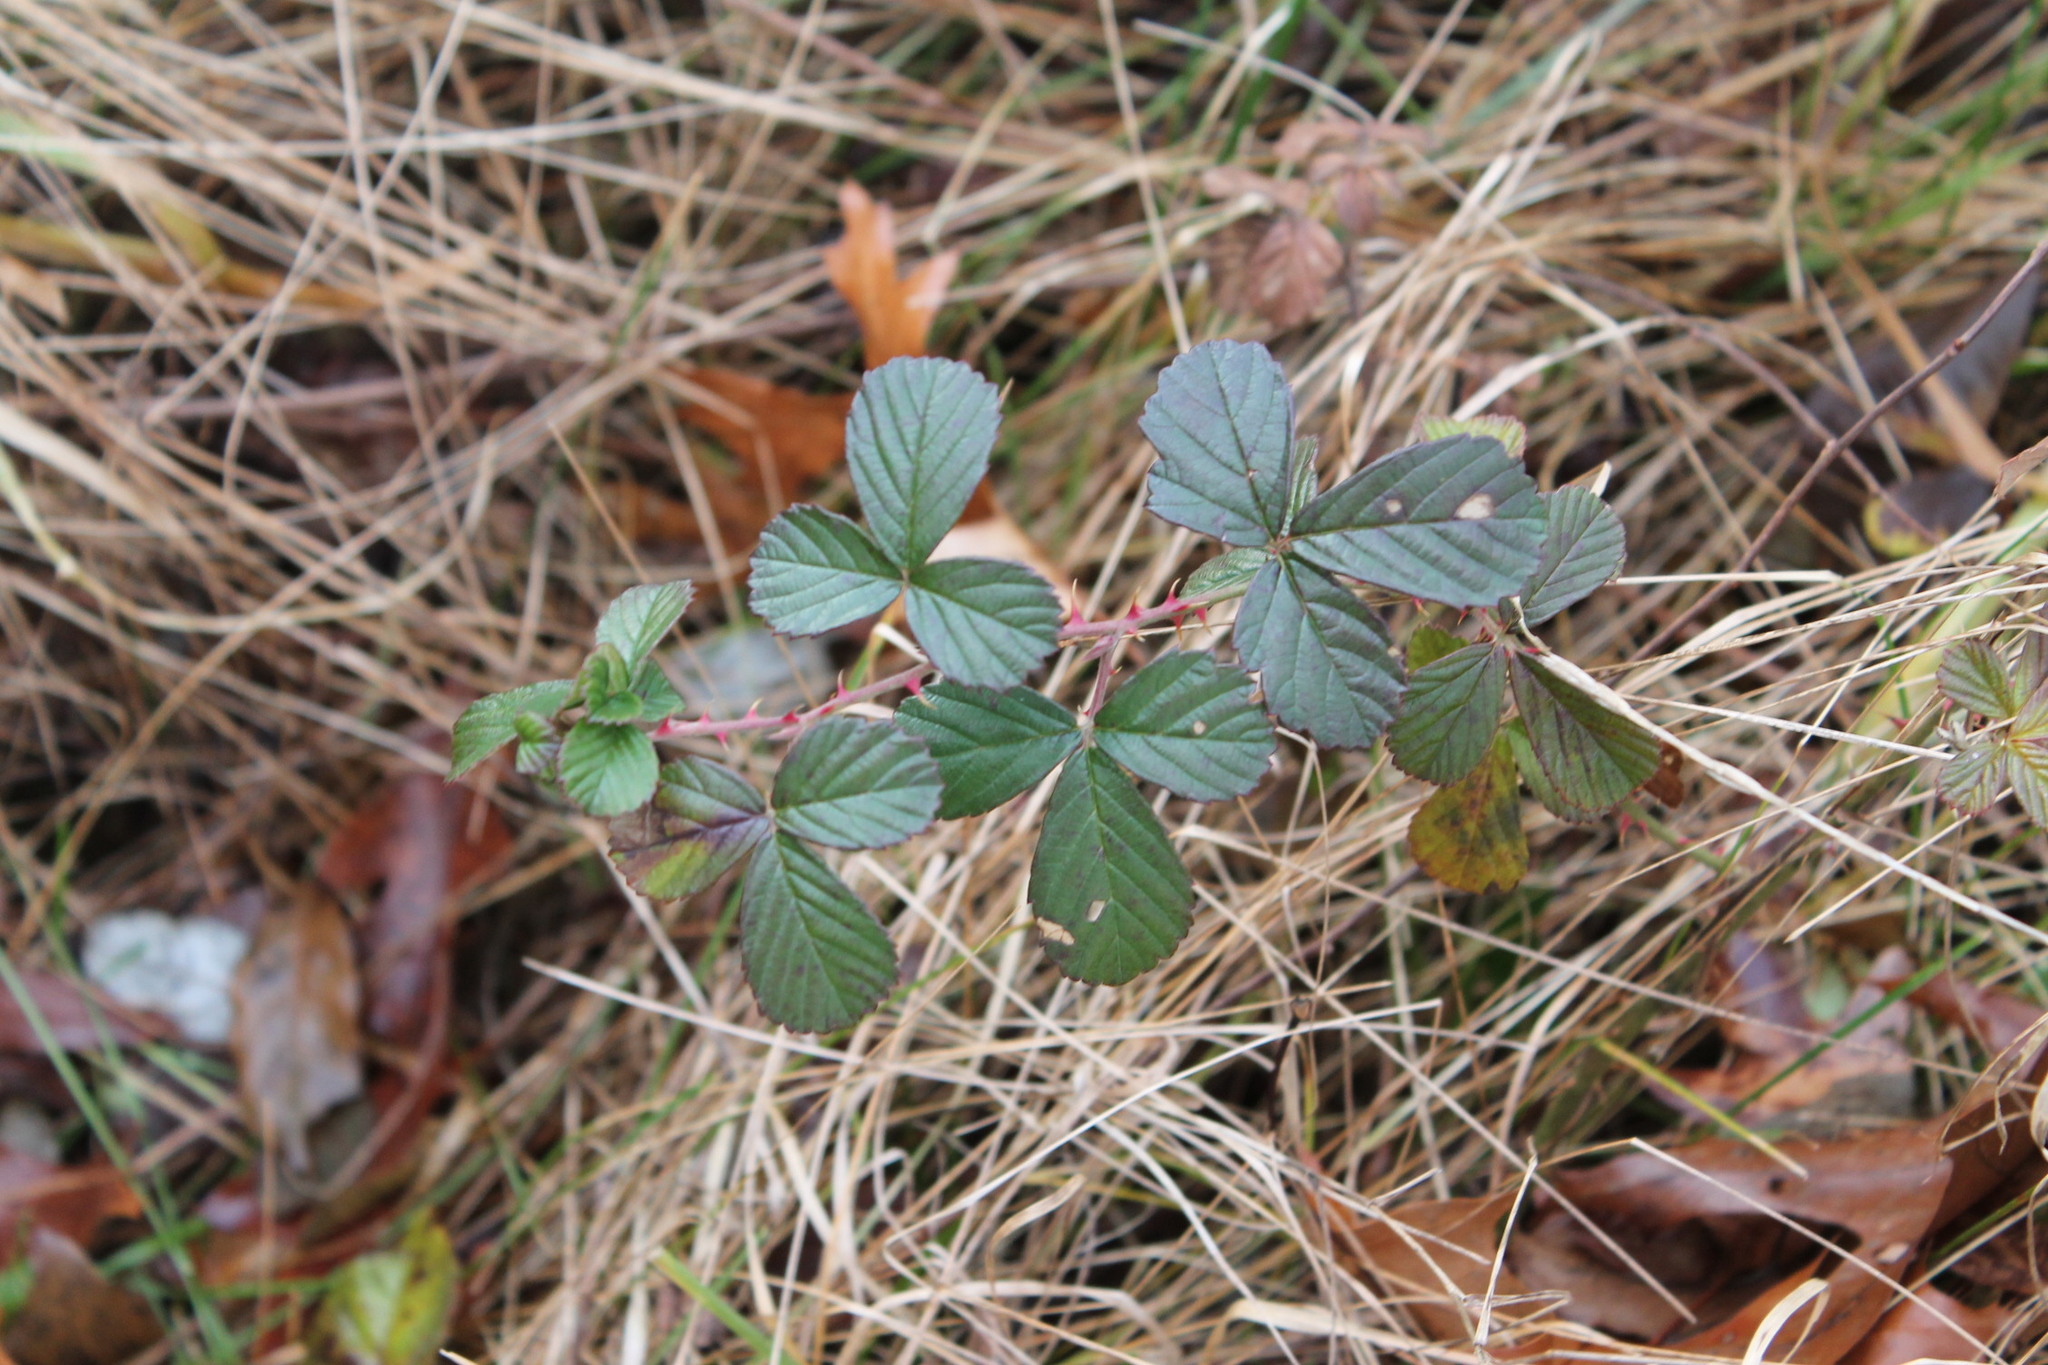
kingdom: Plantae
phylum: Tracheophyta
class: Magnoliopsida
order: Rosales
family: Rosaceae
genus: Rubus
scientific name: Rubus cuneifolius
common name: American bramble
